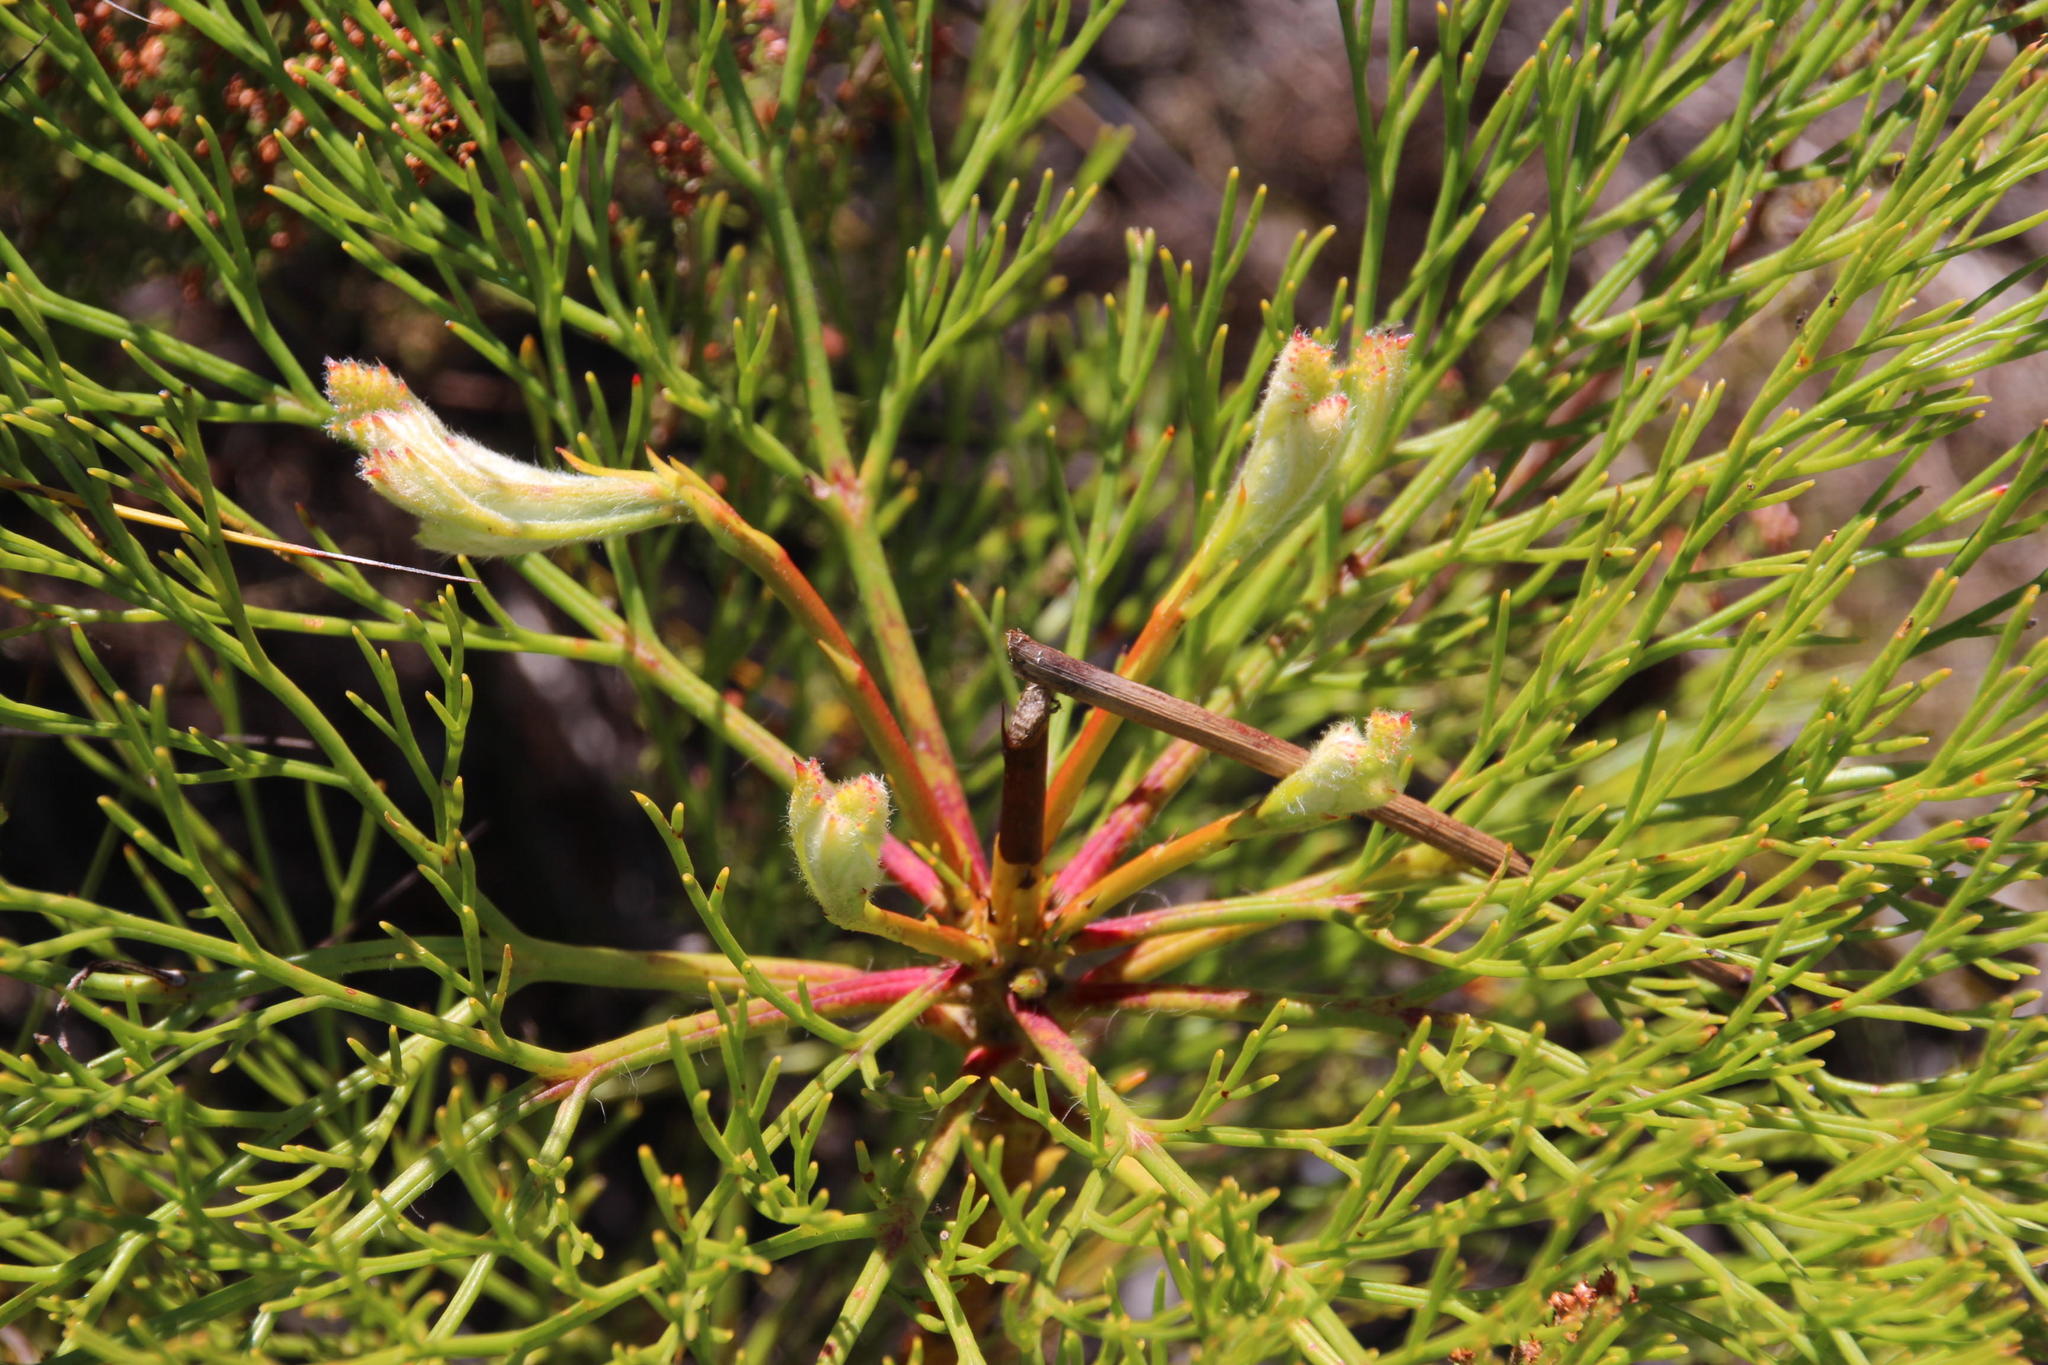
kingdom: Plantae
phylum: Tracheophyta
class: Magnoliopsida
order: Proteales
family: Proteaceae
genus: Serruria
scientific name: Serruria elongata
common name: Long-stalk spiderhead
